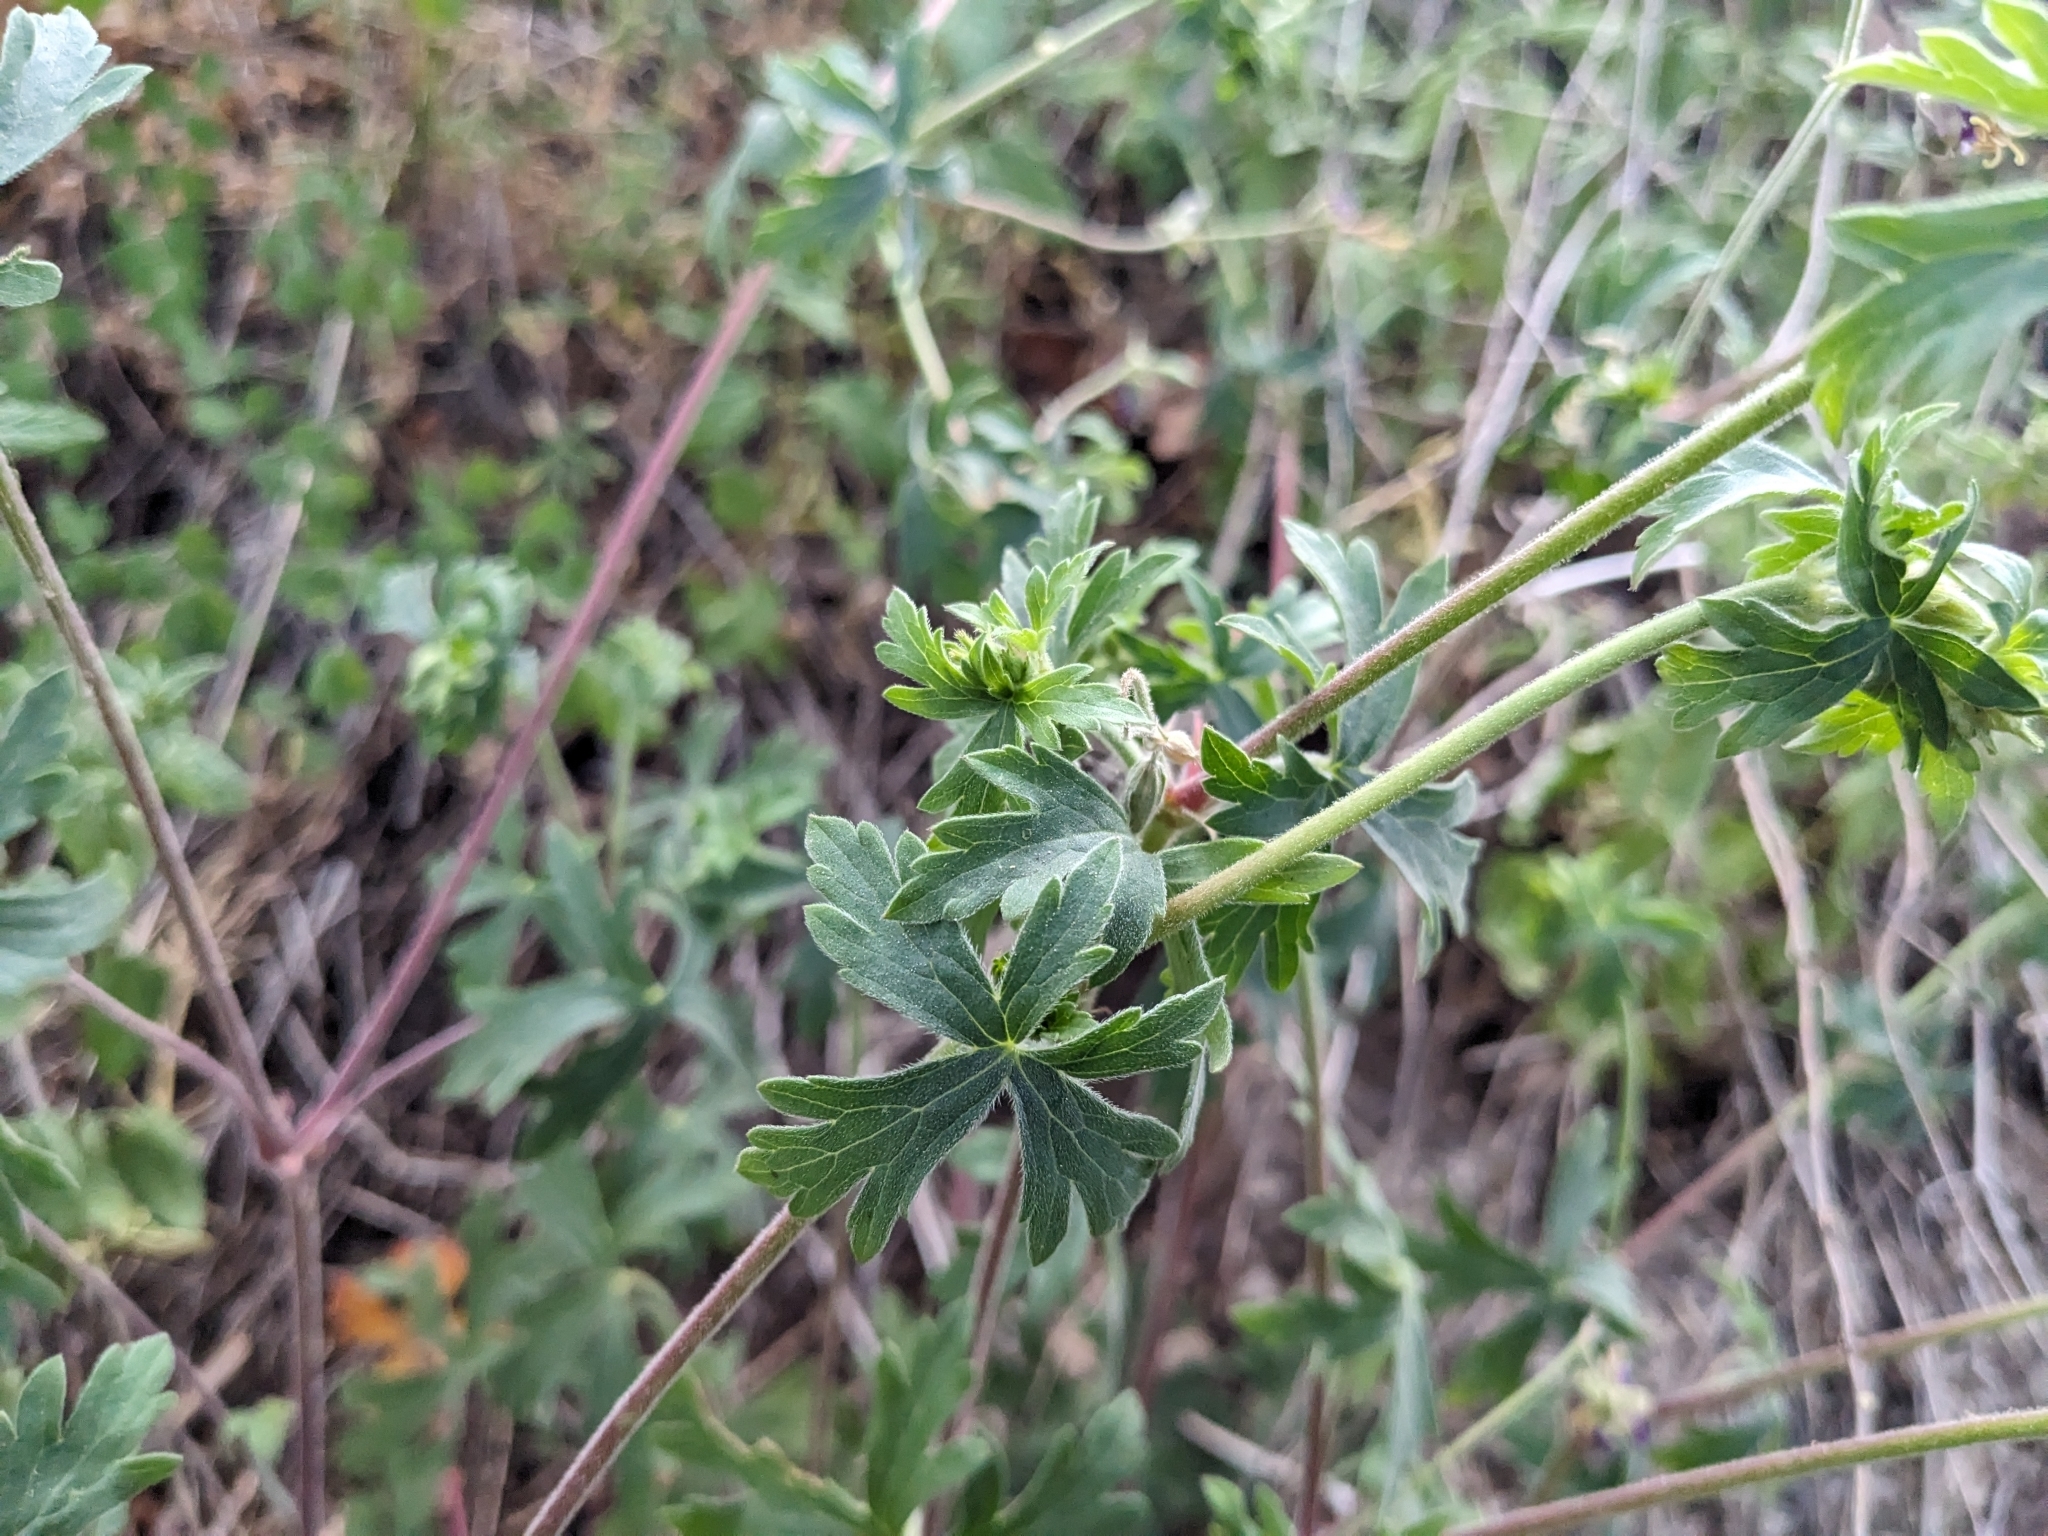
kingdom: Plantae
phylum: Tracheophyta
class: Magnoliopsida
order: Geraniales
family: Geraniaceae
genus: Geranium
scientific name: Geranium caespitosum
